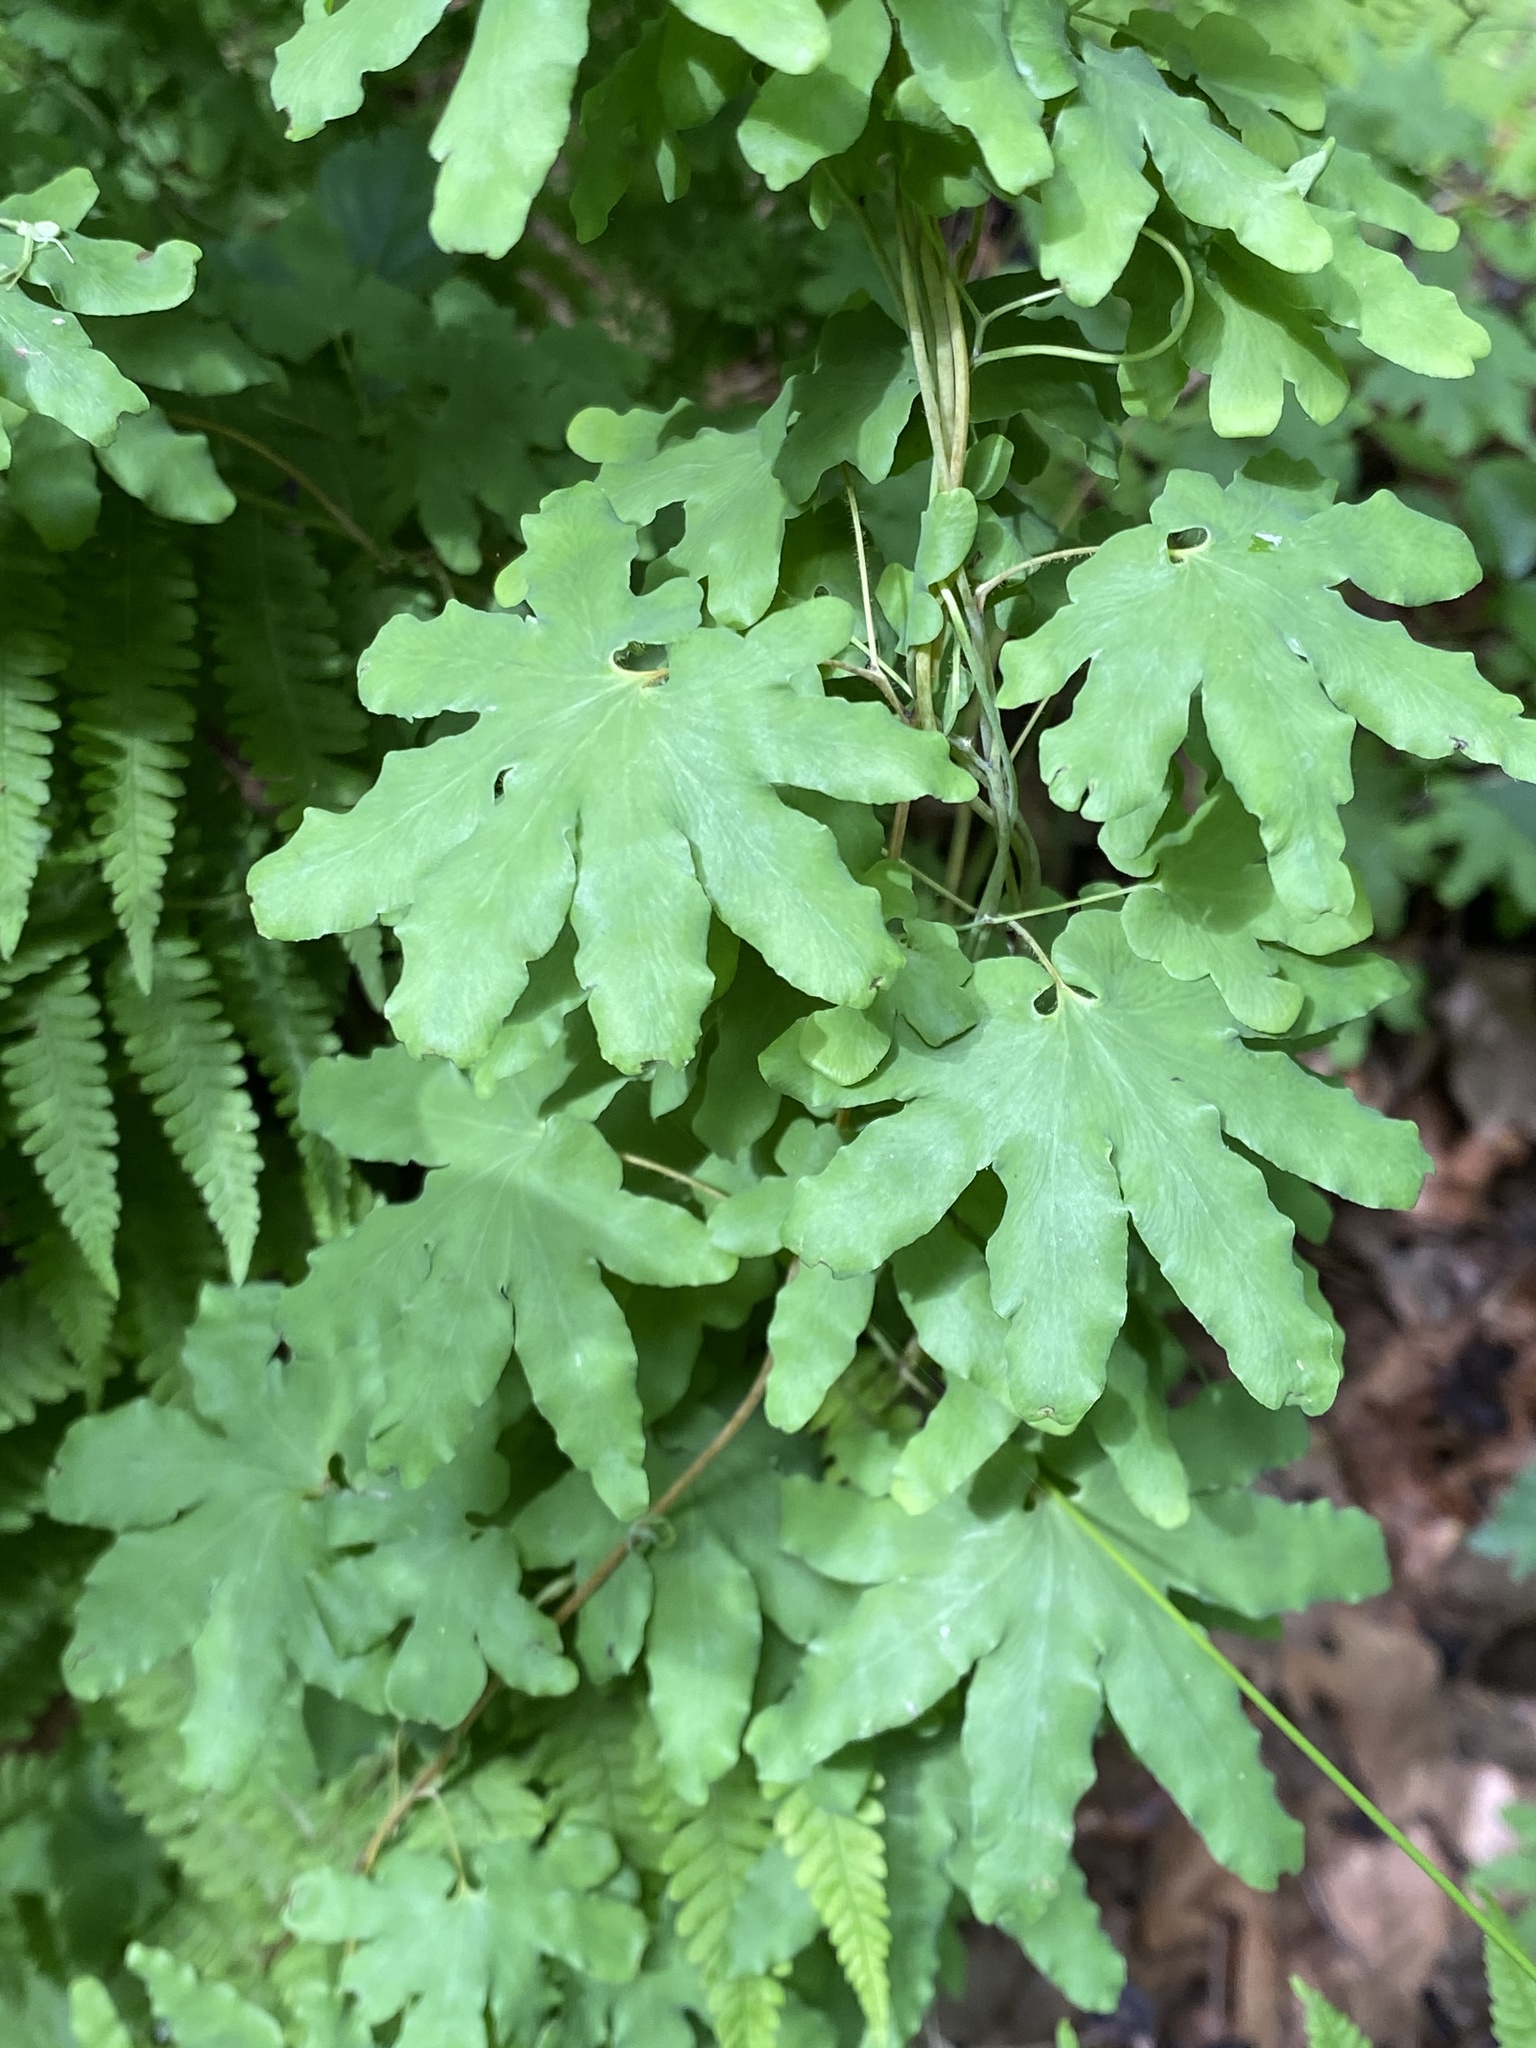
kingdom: Plantae
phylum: Tracheophyta
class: Polypodiopsida
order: Schizaeales
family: Lygodiaceae
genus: Lygodium
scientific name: Lygodium palmatum
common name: American climbing fern
